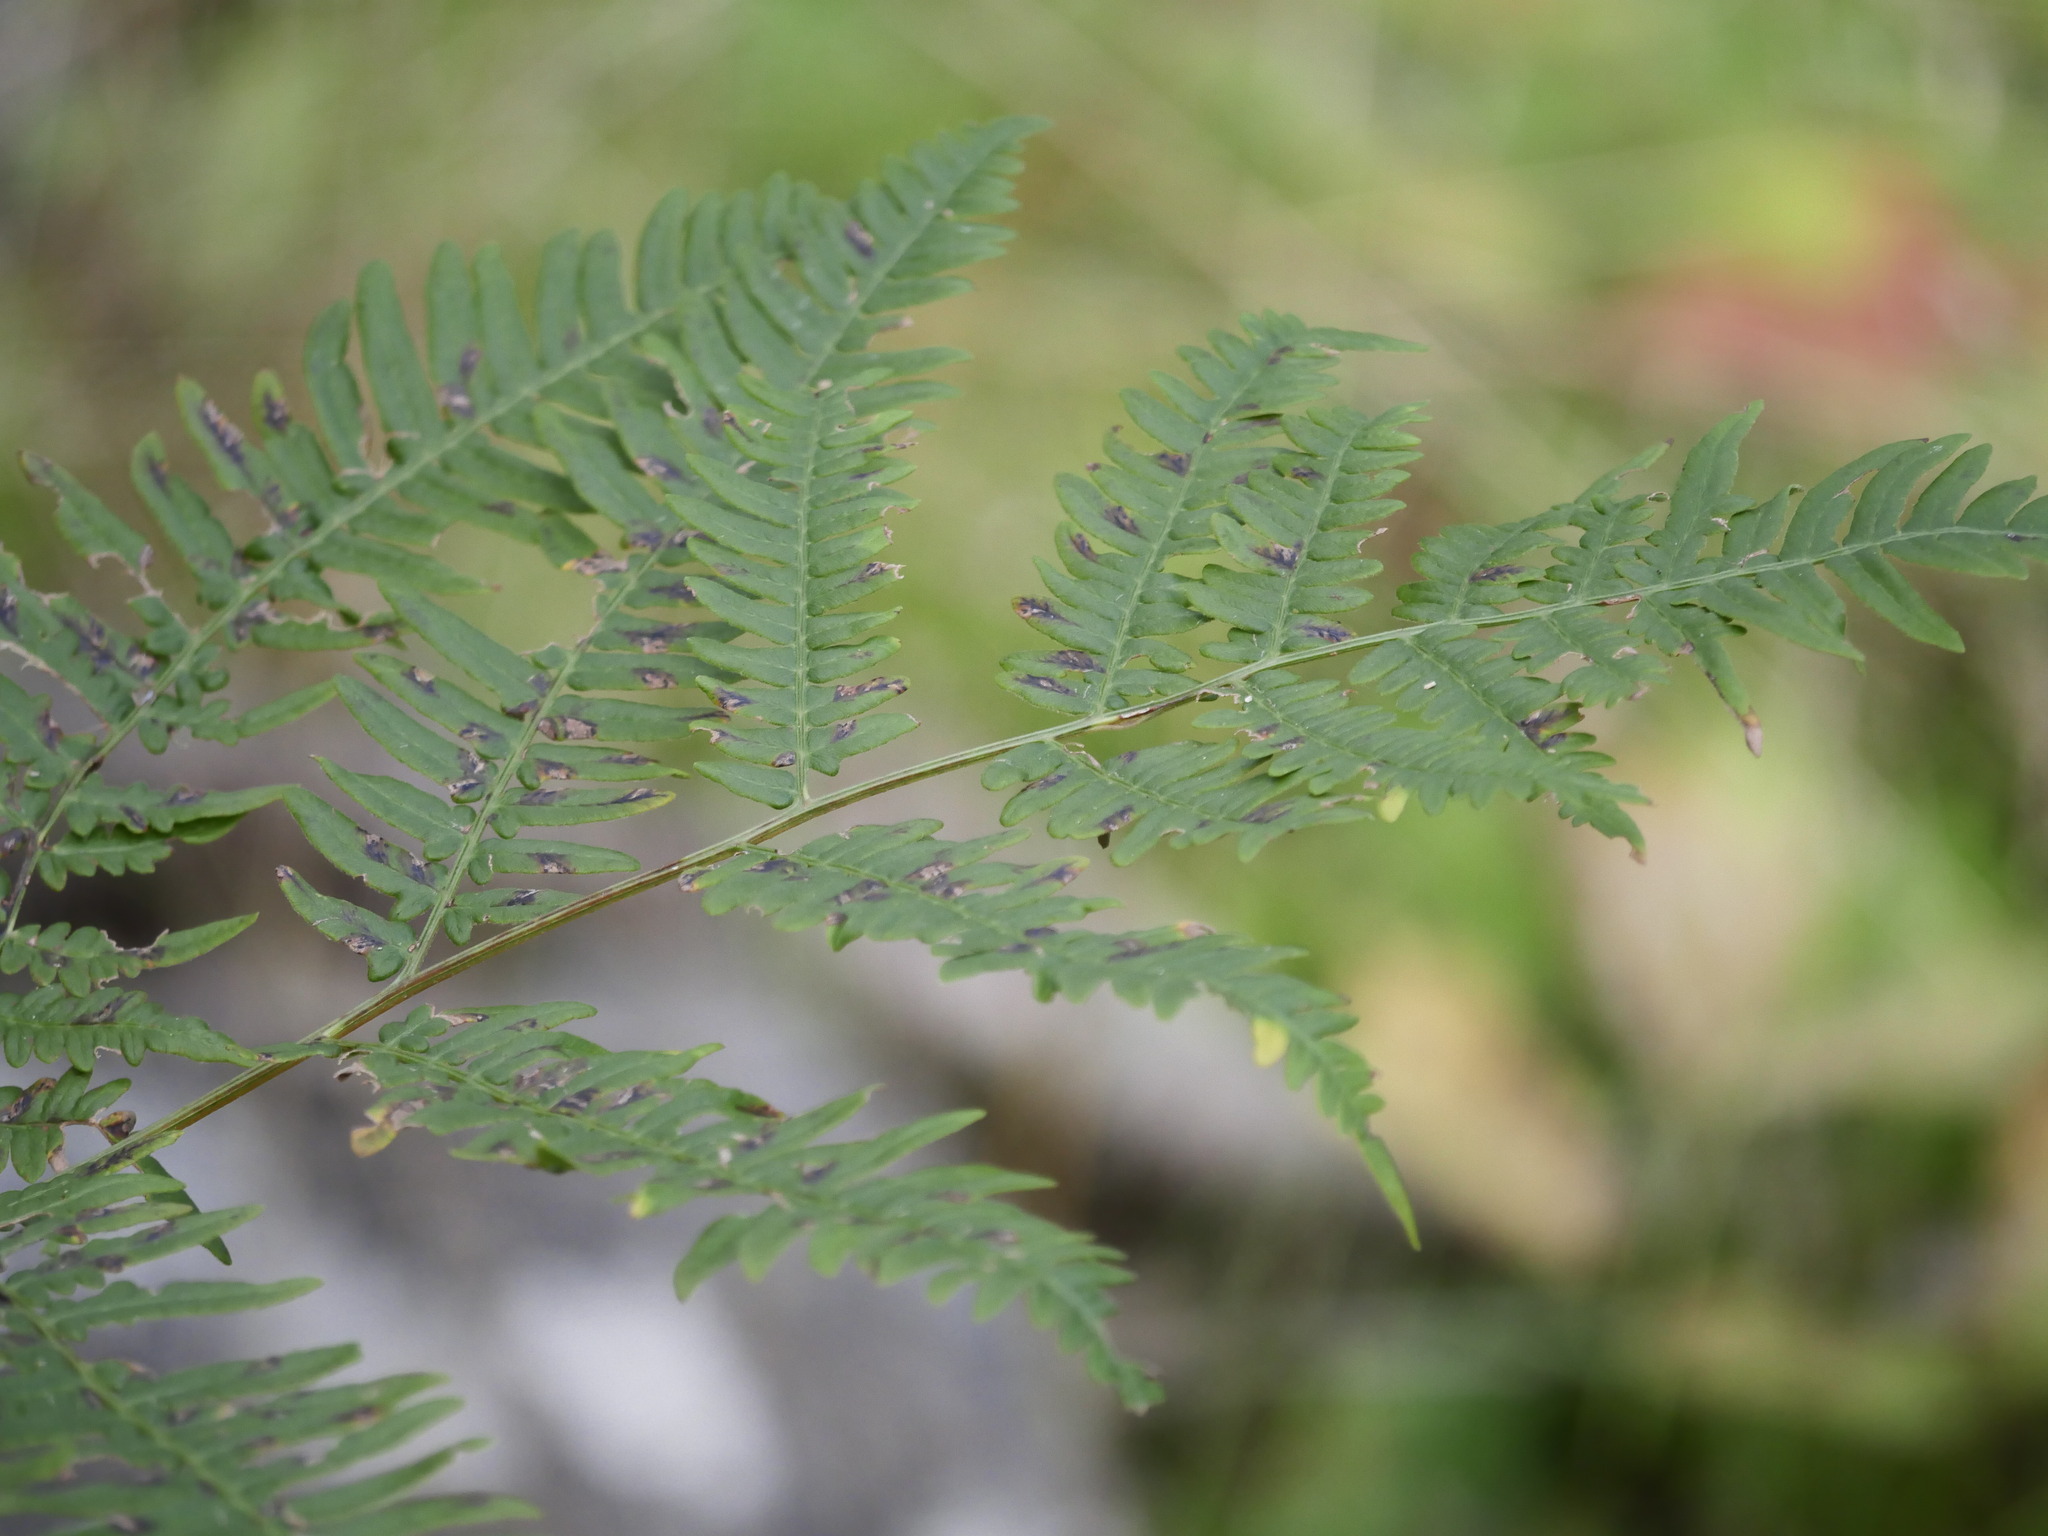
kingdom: Plantae
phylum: Tracheophyta
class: Polypodiopsida
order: Polypodiales
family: Dennstaedtiaceae
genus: Pteridium
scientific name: Pteridium aquilinum
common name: Bracken
